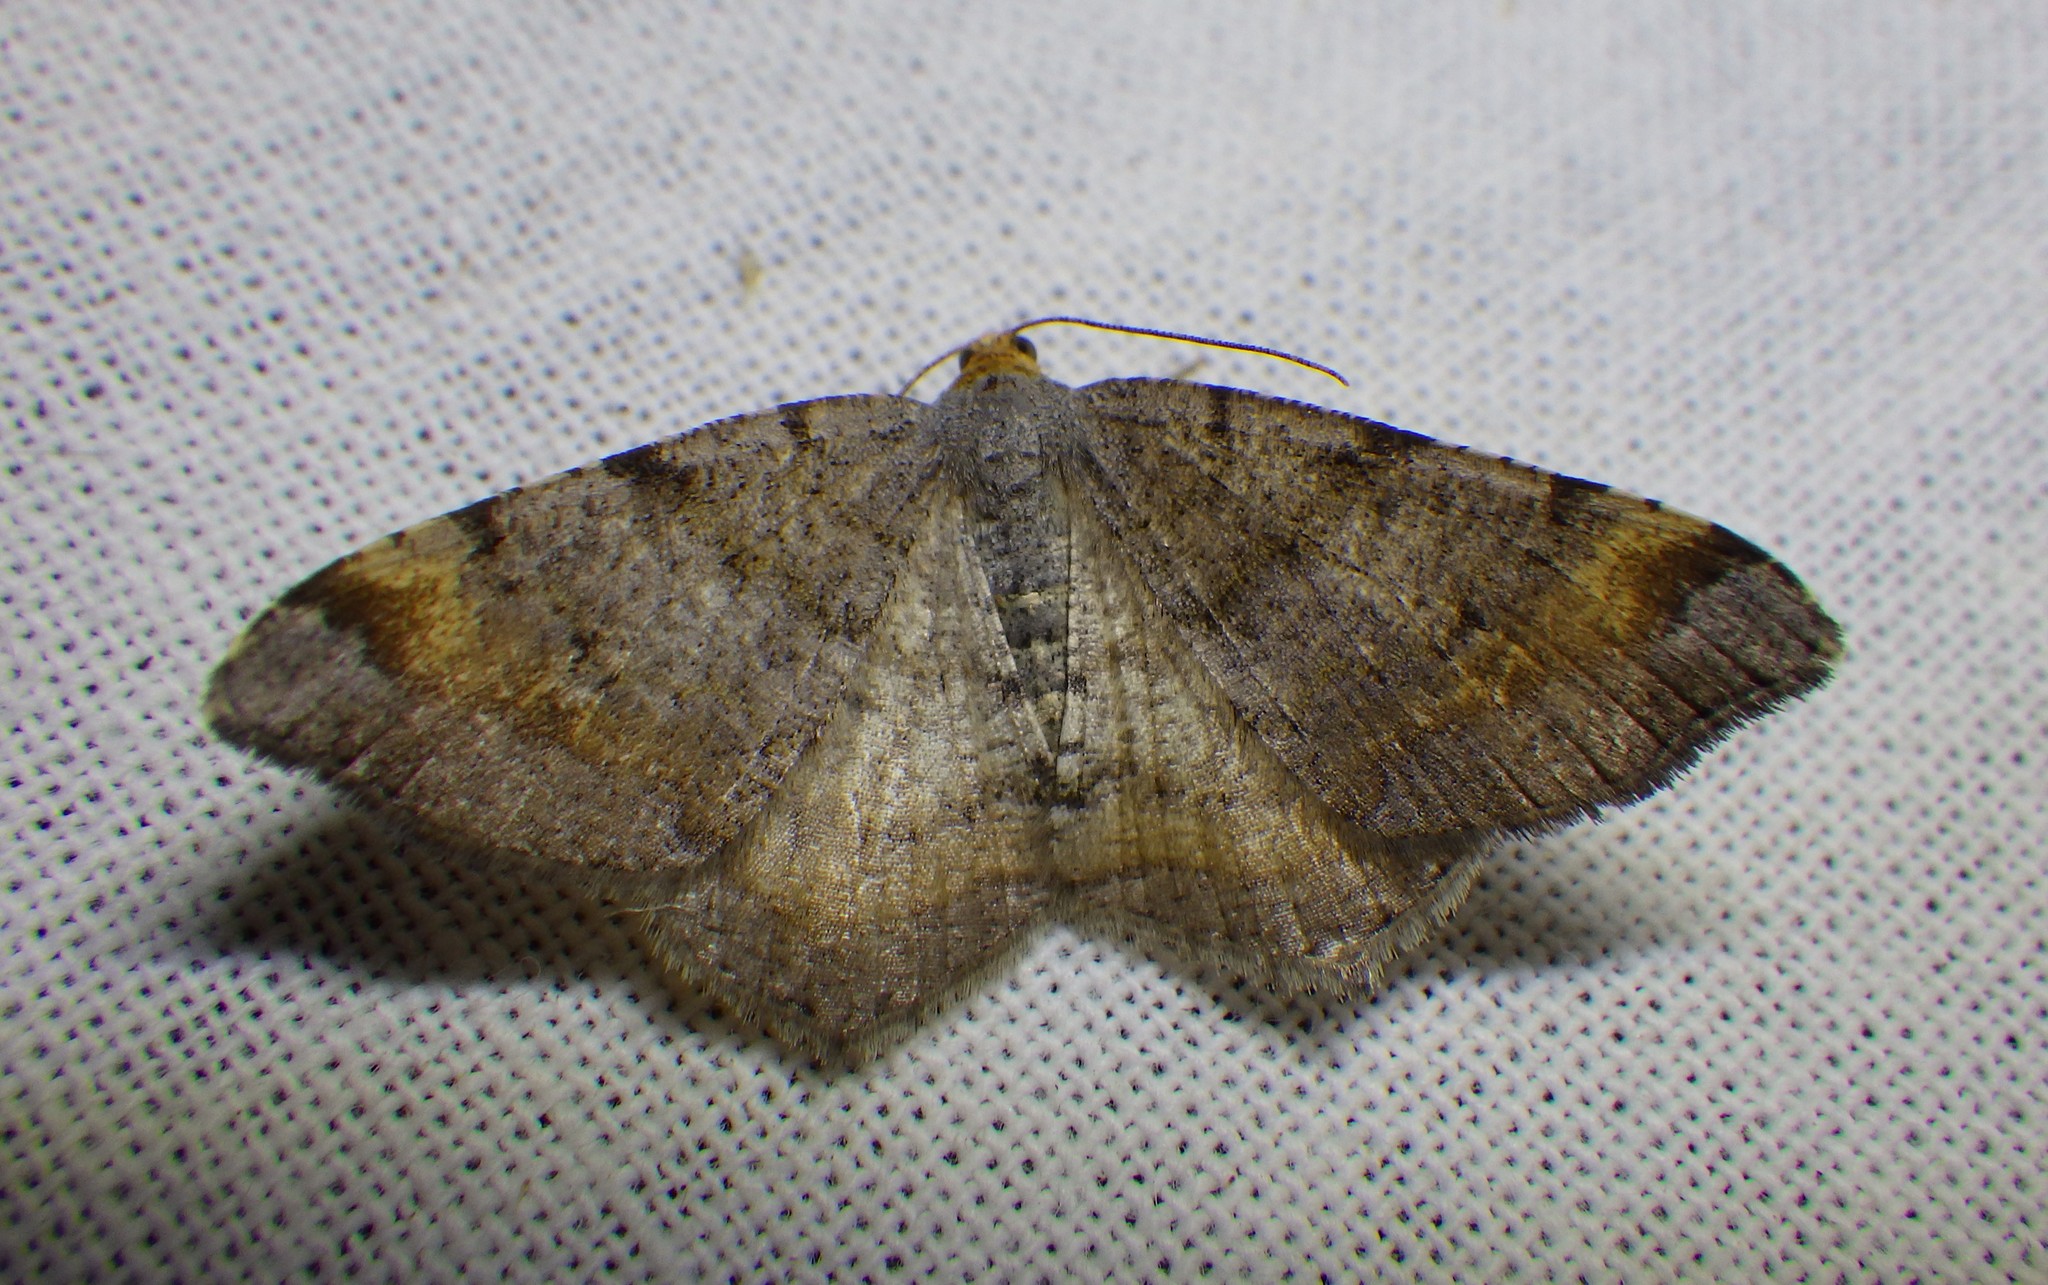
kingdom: Animalia
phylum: Arthropoda
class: Insecta
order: Lepidoptera
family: Geometridae
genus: Macaria
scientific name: Macaria liturata
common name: Tawny-barred angle
